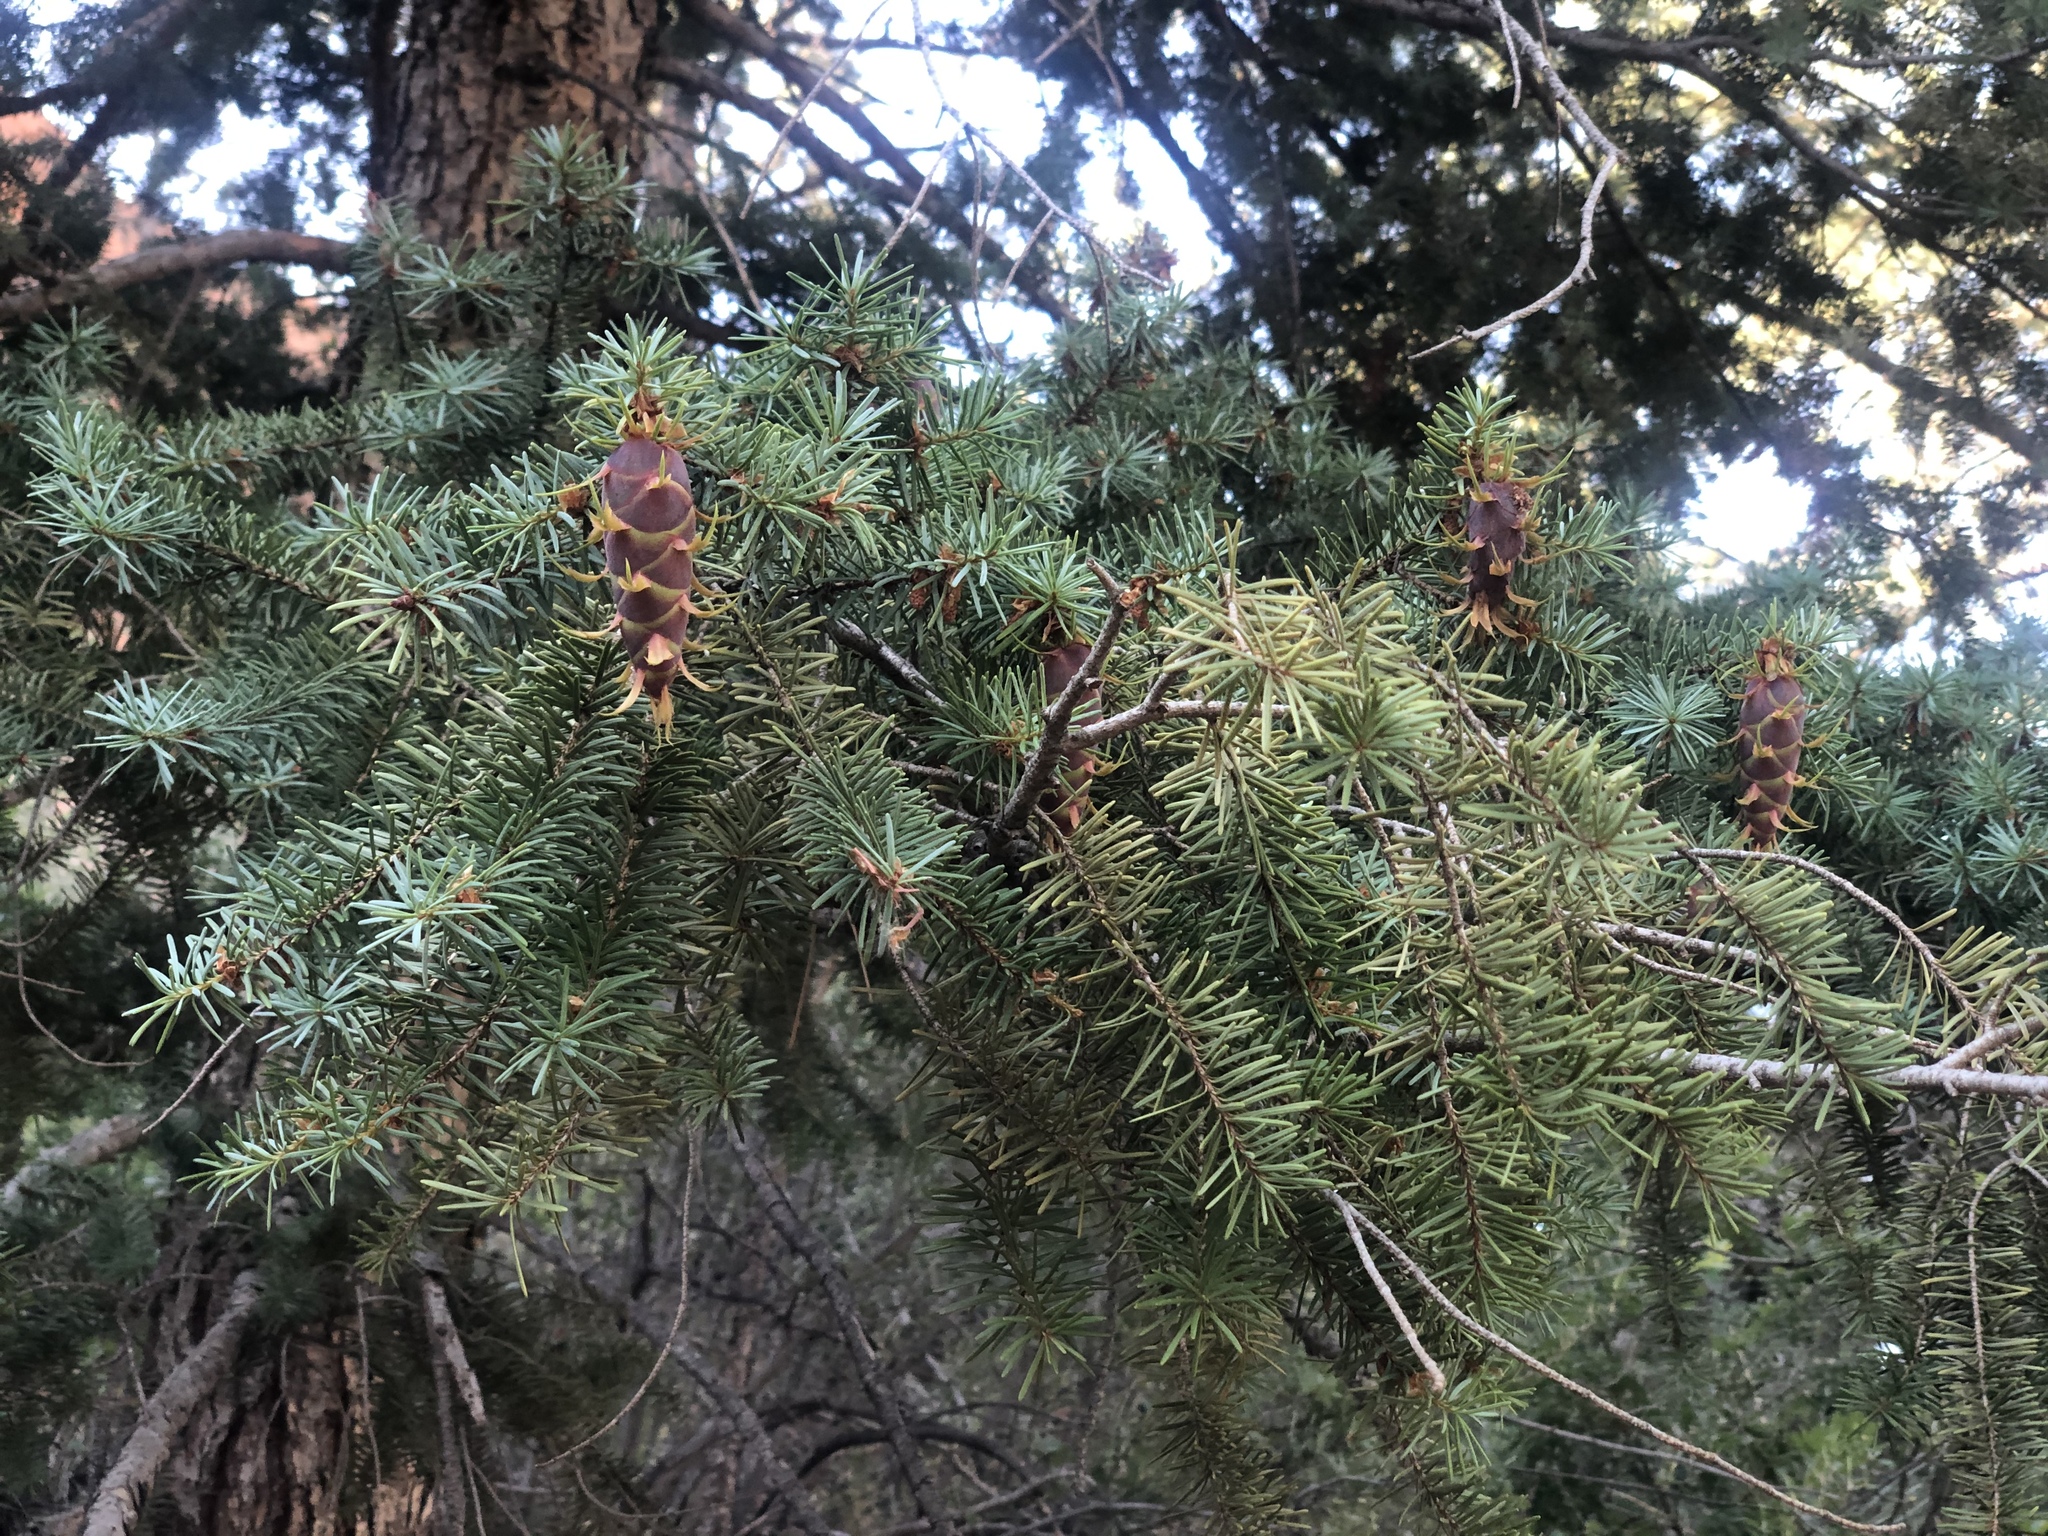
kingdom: Plantae
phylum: Tracheophyta
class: Pinopsida
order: Pinales
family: Pinaceae
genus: Pseudotsuga
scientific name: Pseudotsuga menziesii
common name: Douglas fir
